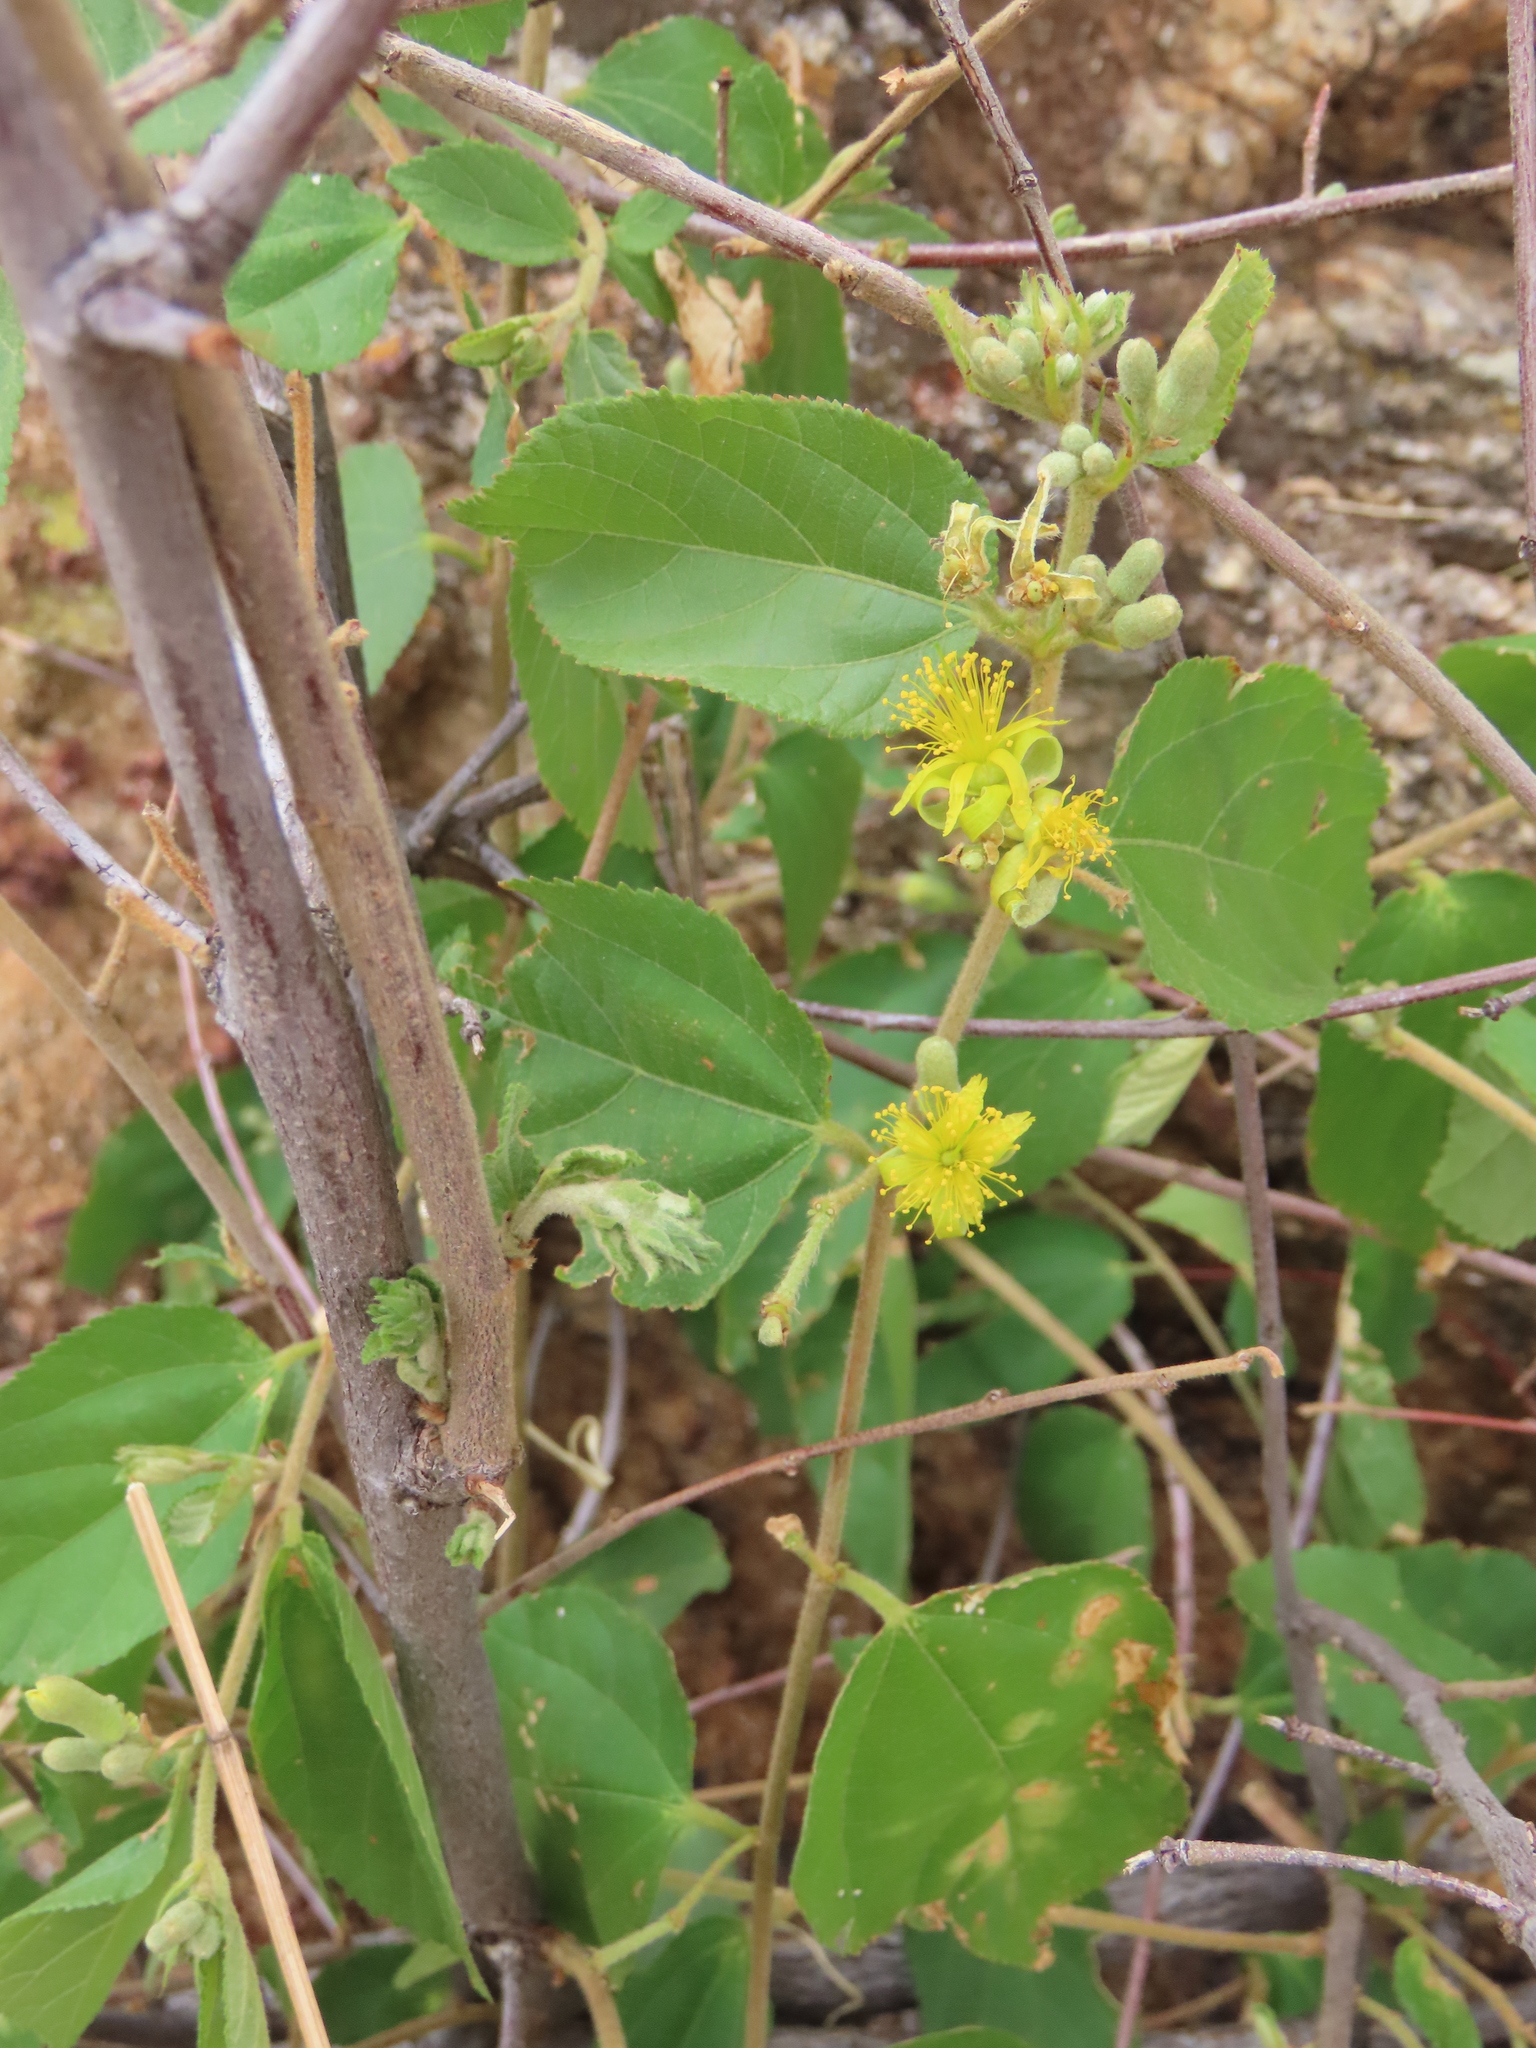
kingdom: Plantae
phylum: Tracheophyta
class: Magnoliopsida
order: Malvales
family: Malvaceae
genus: Grewia
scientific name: Grewia flavescens
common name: Sandpaper raisin
